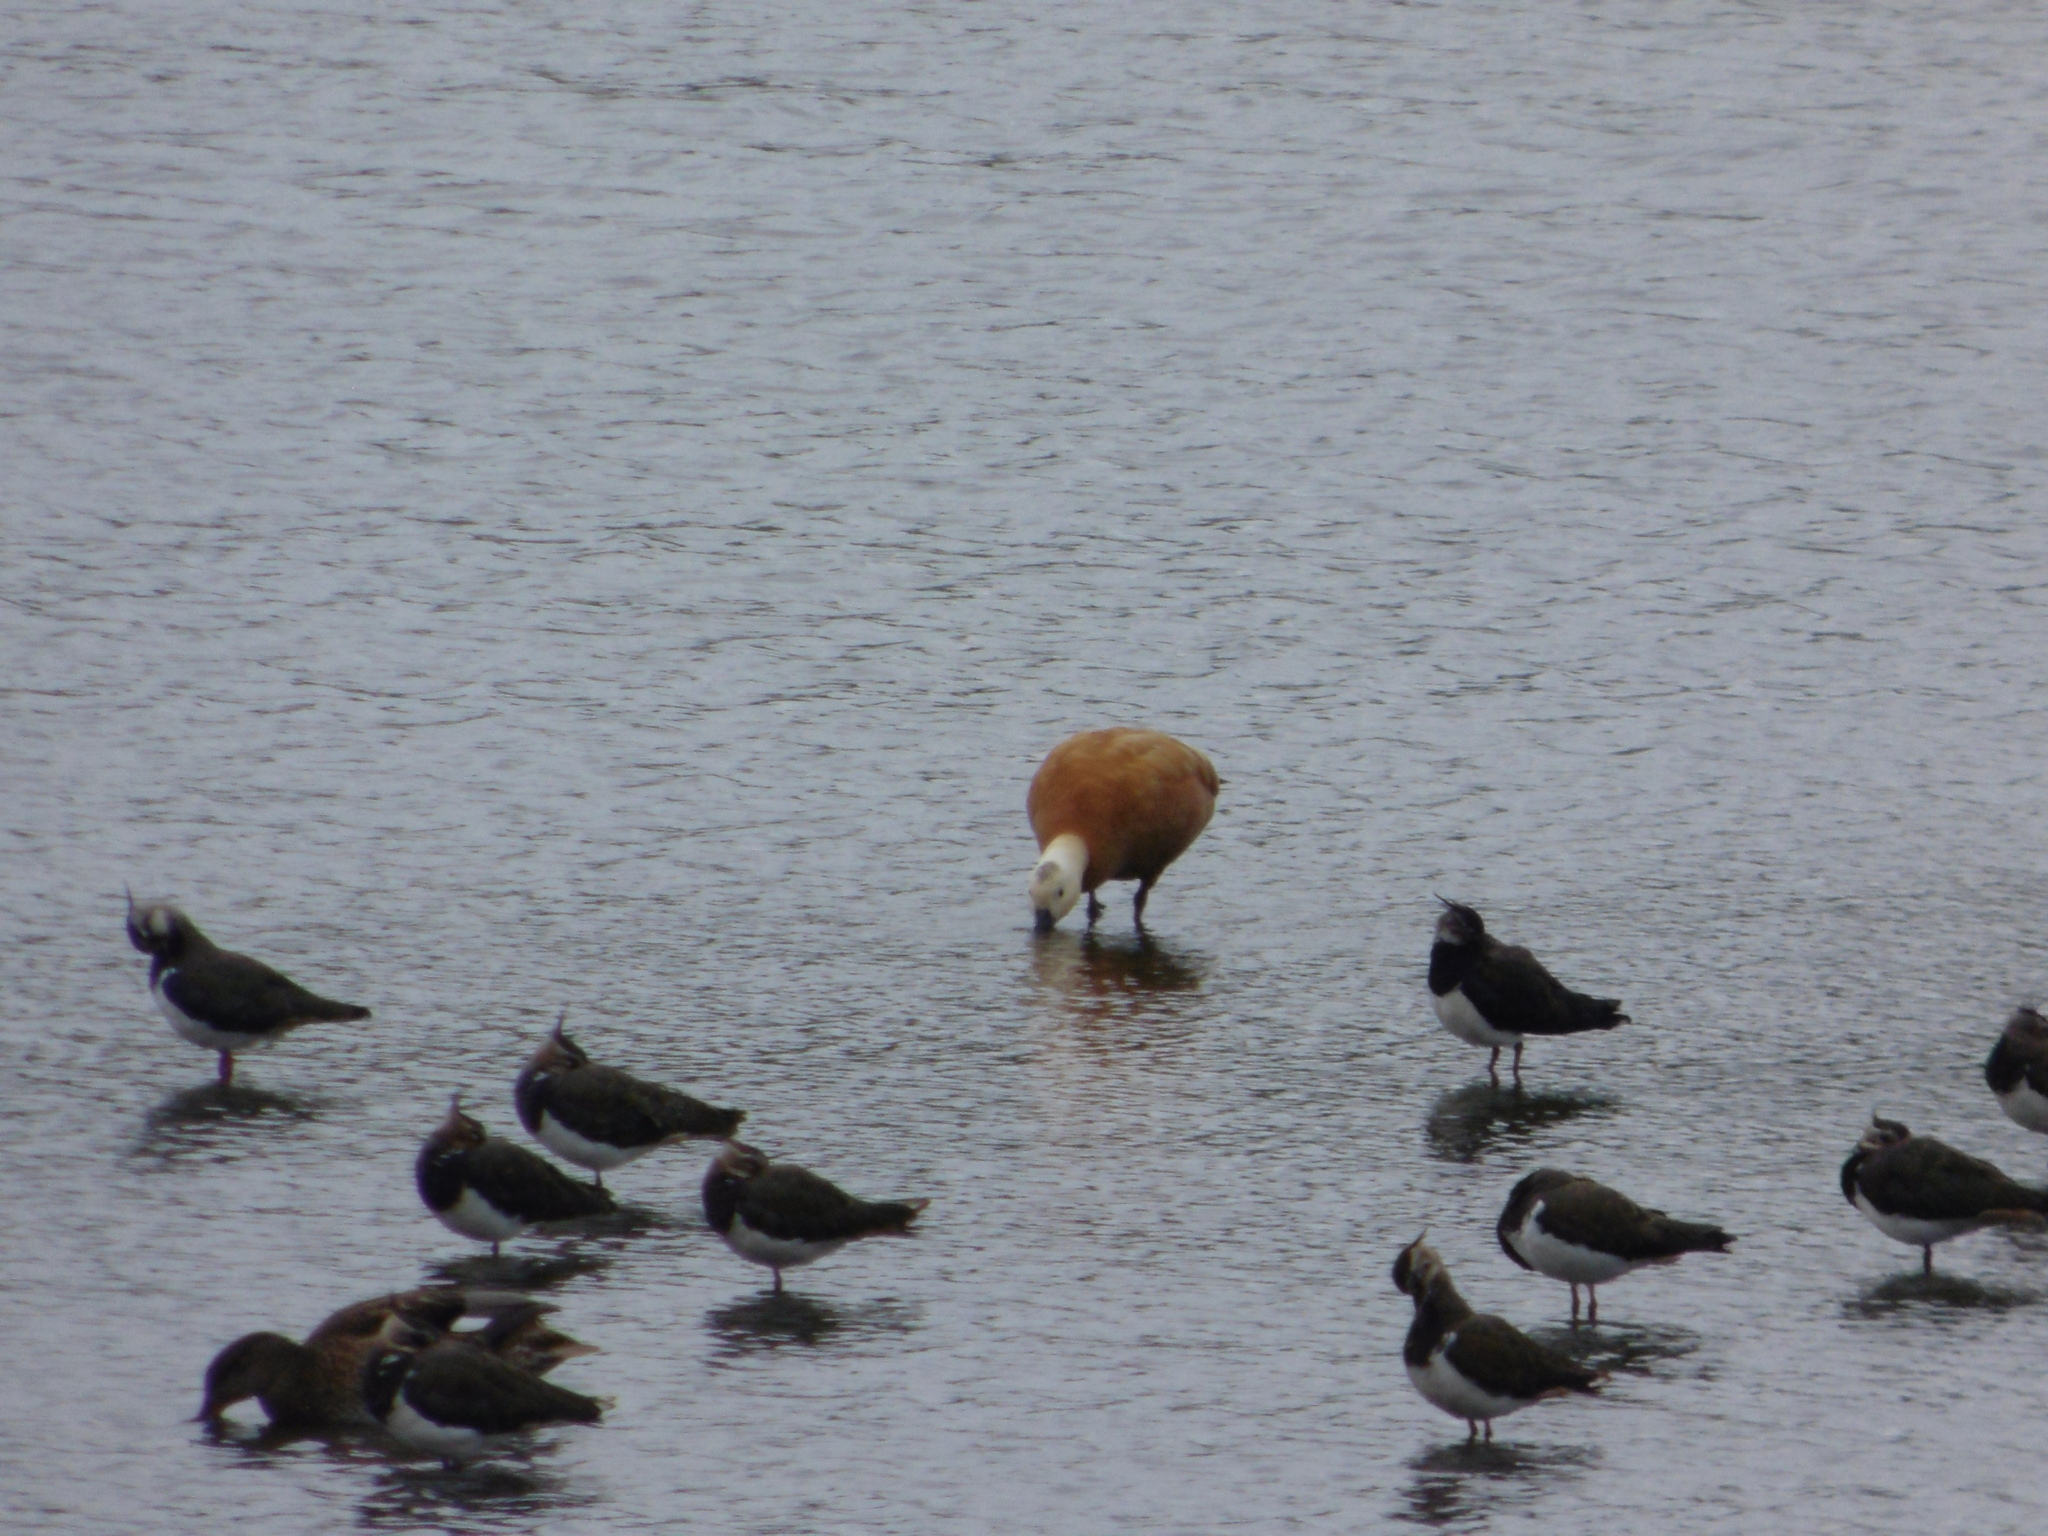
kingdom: Animalia
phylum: Chordata
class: Aves
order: Anseriformes
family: Anatidae
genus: Tadorna
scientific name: Tadorna ferruginea
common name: Ruddy shelduck
